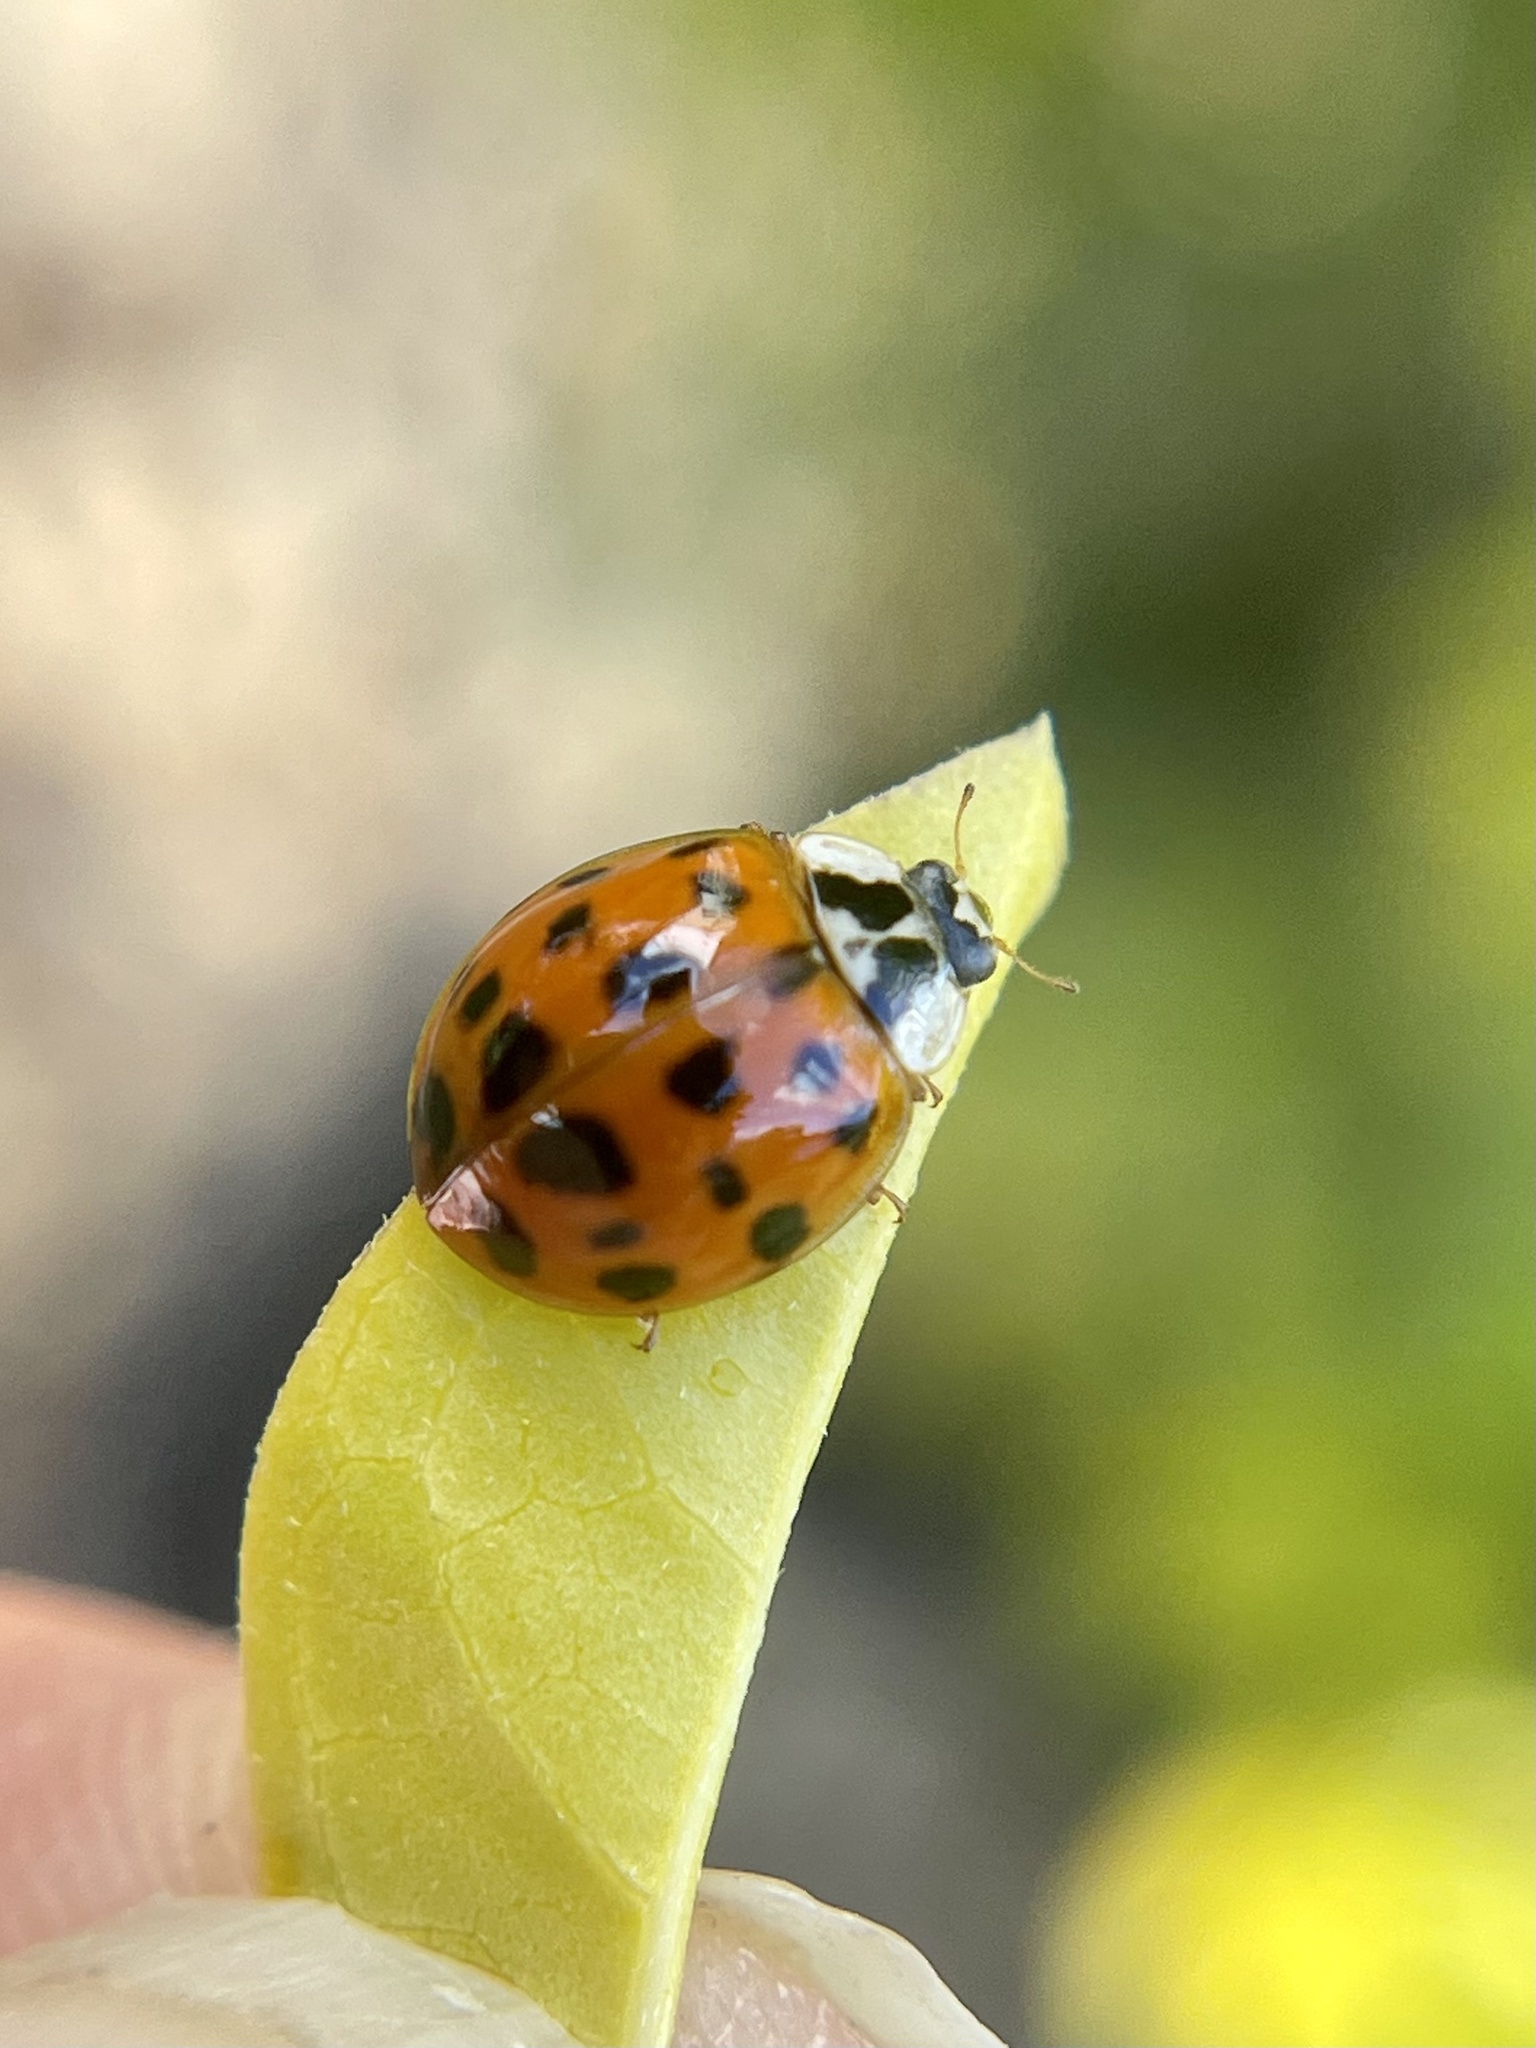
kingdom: Animalia
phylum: Arthropoda
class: Insecta
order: Coleoptera
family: Coccinellidae
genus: Harmonia
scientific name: Harmonia axyridis
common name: Harlequin ladybird
